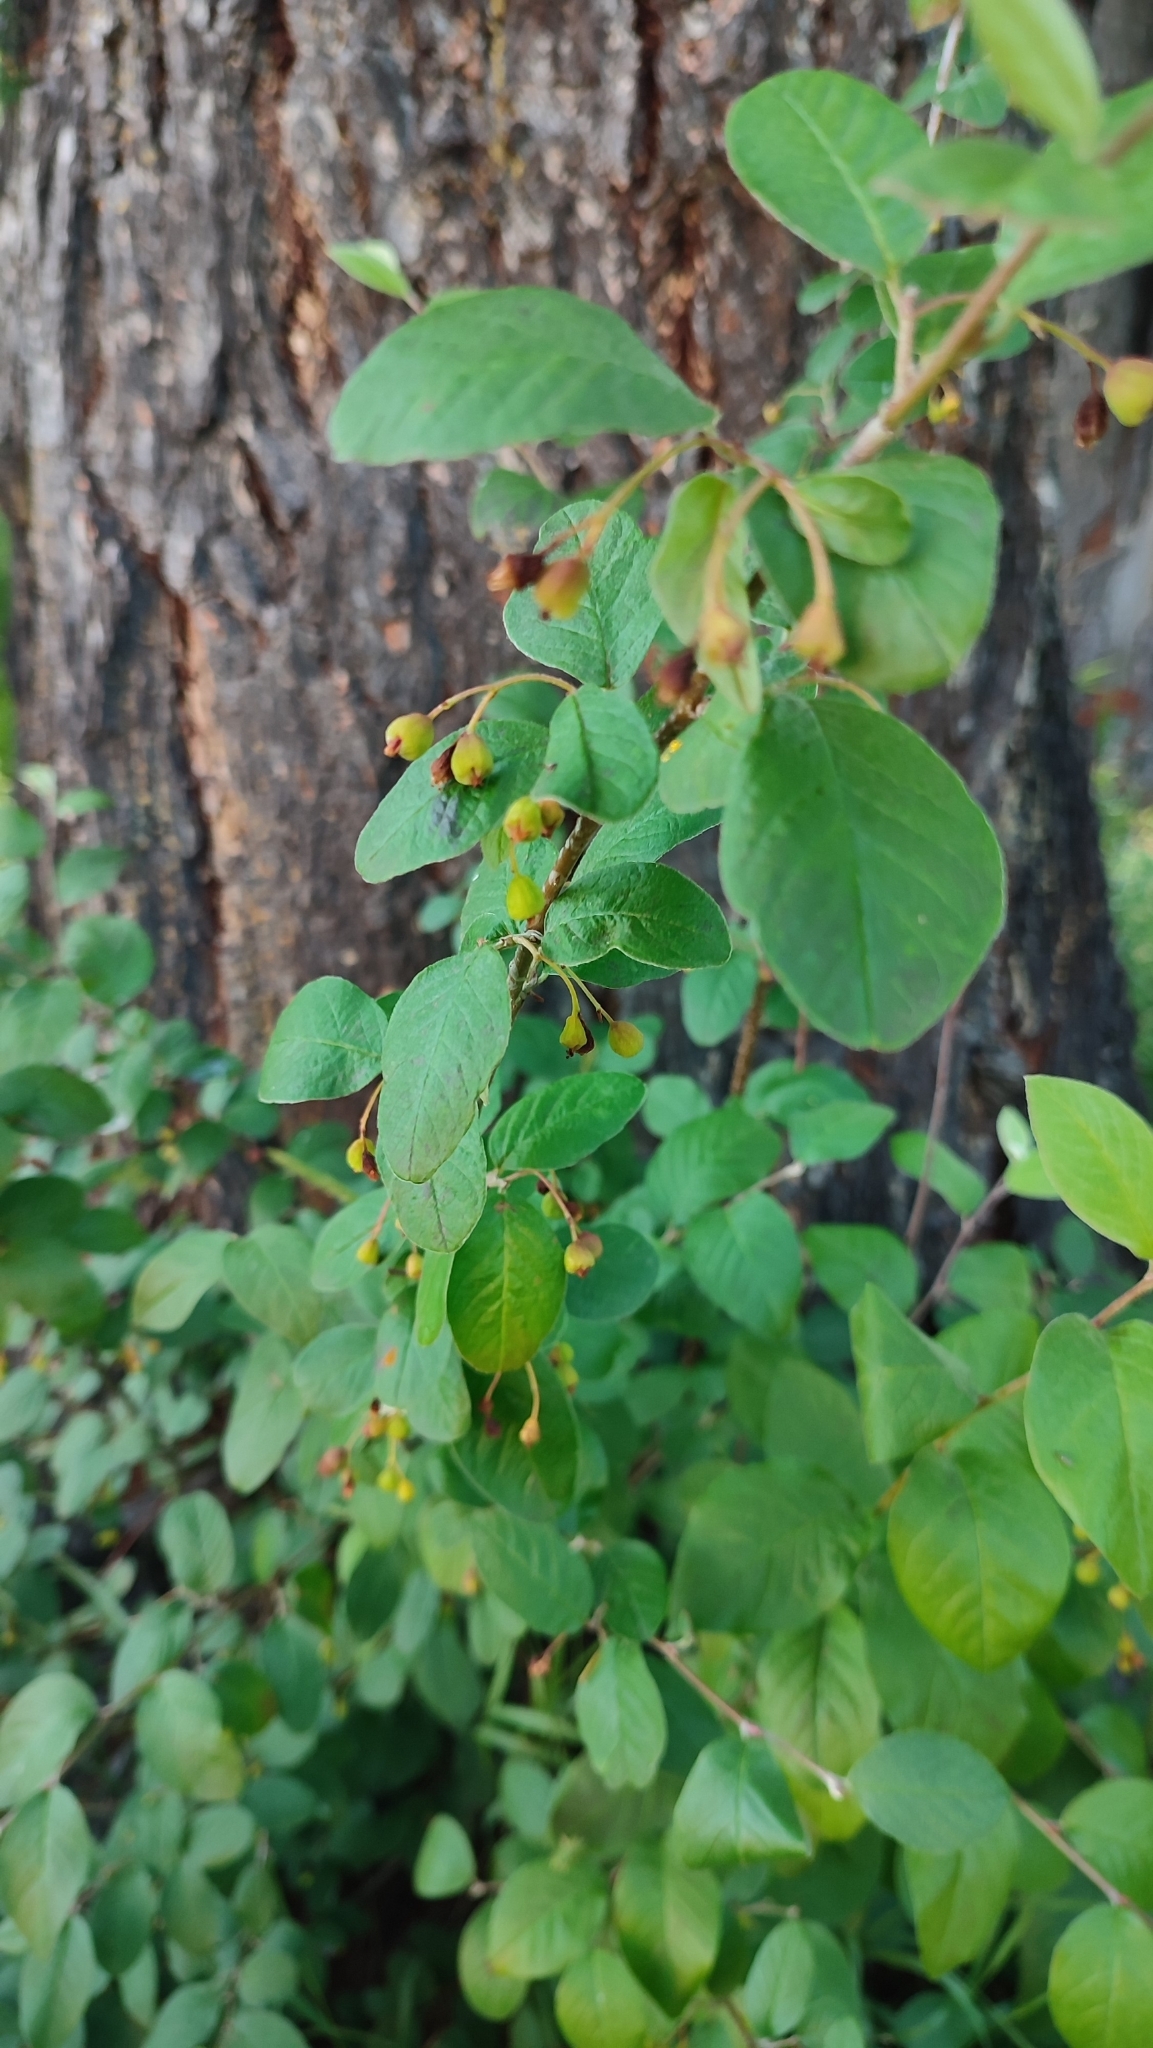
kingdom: Plantae
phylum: Tracheophyta
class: Magnoliopsida
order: Rosales
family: Rosaceae
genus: Cotoneaster
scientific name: Cotoneaster melanocarpus
